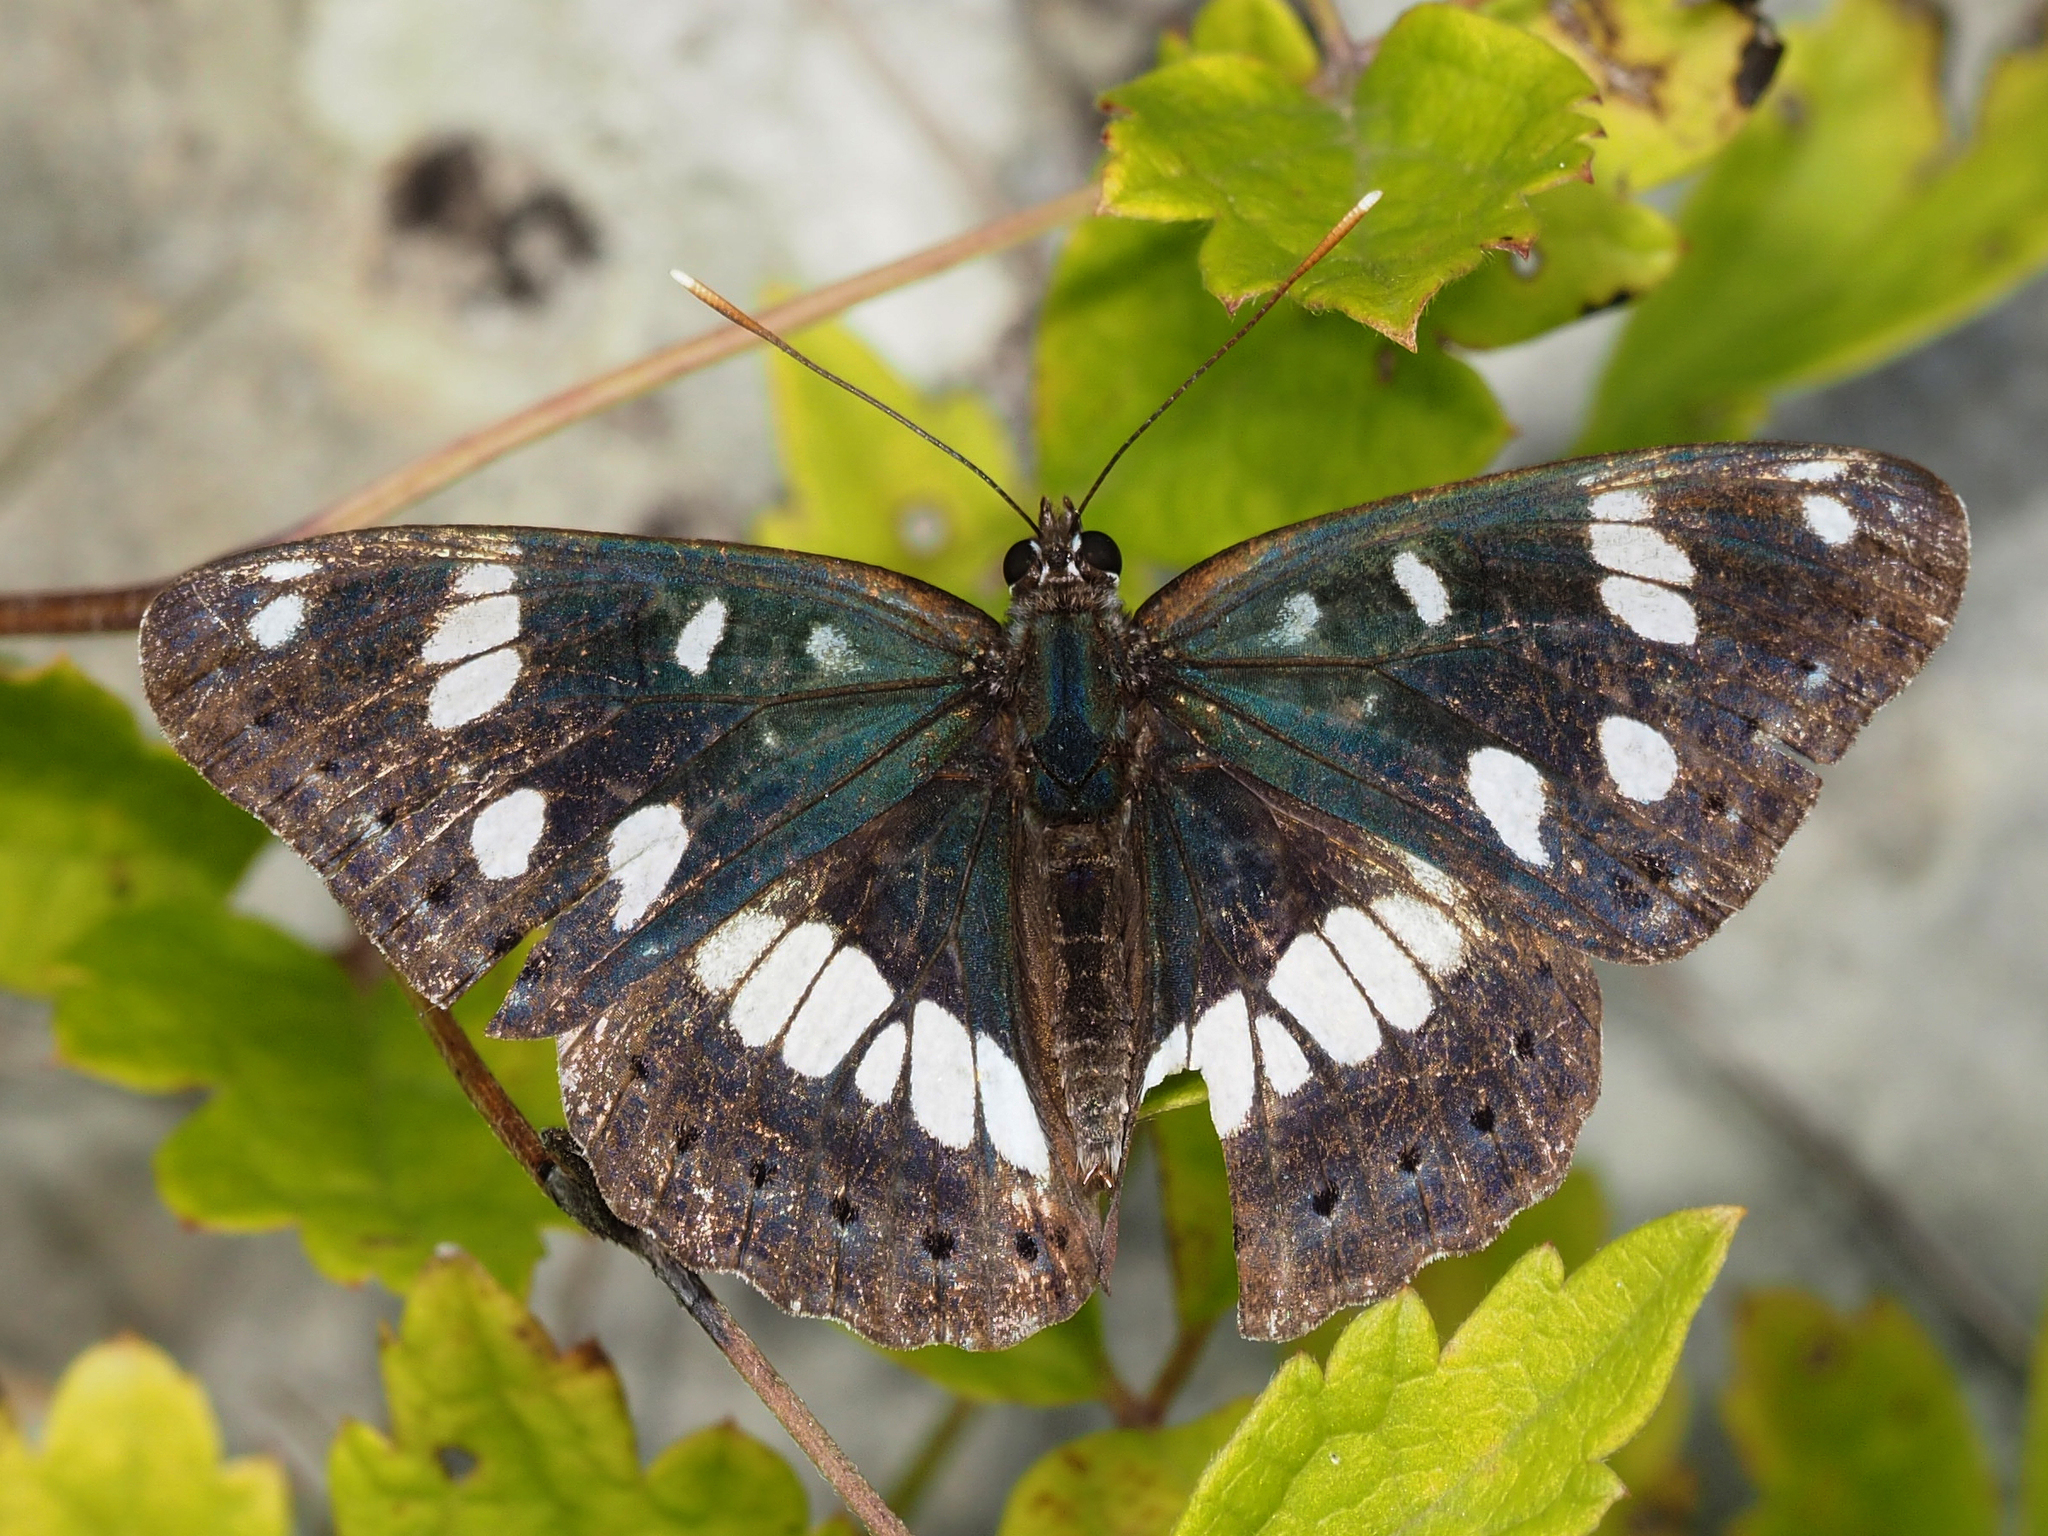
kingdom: Animalia
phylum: Arthropoda
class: Insecta
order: Lepidoptera
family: Nymphalidae
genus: Limenitis
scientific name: Limenitis reducta
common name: Southern white admiral
